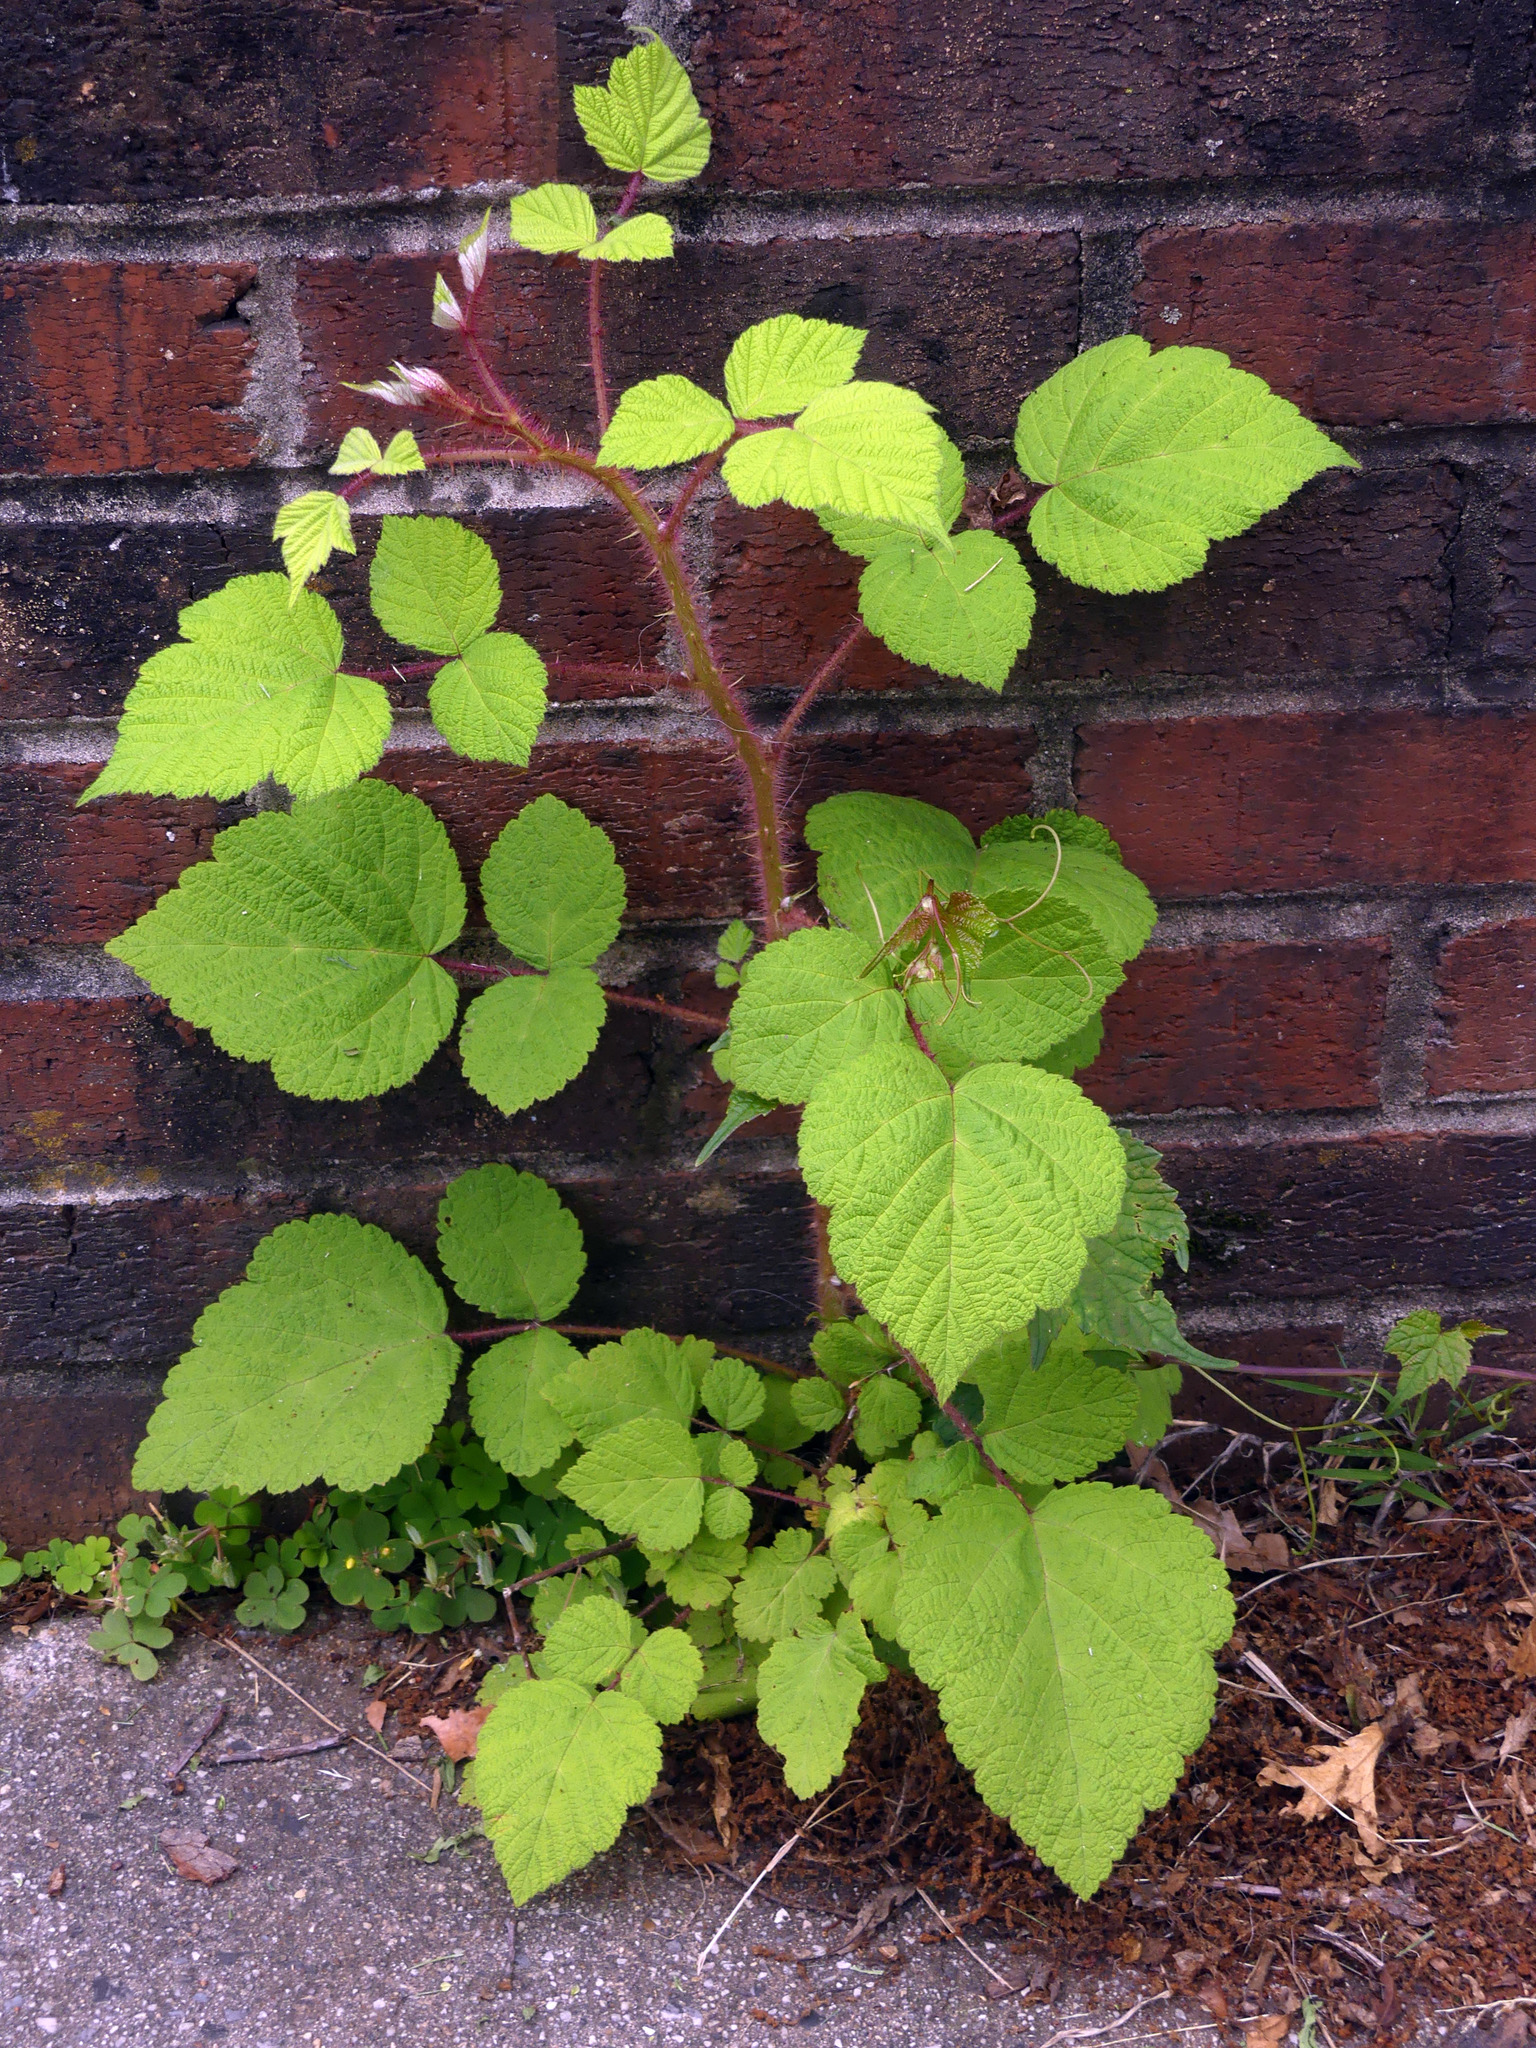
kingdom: Plantae
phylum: Tracheophyta
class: Magnoliopsida
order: Rosales
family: Rosaceae
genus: Rubus
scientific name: Rubus phoenicolasius
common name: Japanese wineberry
